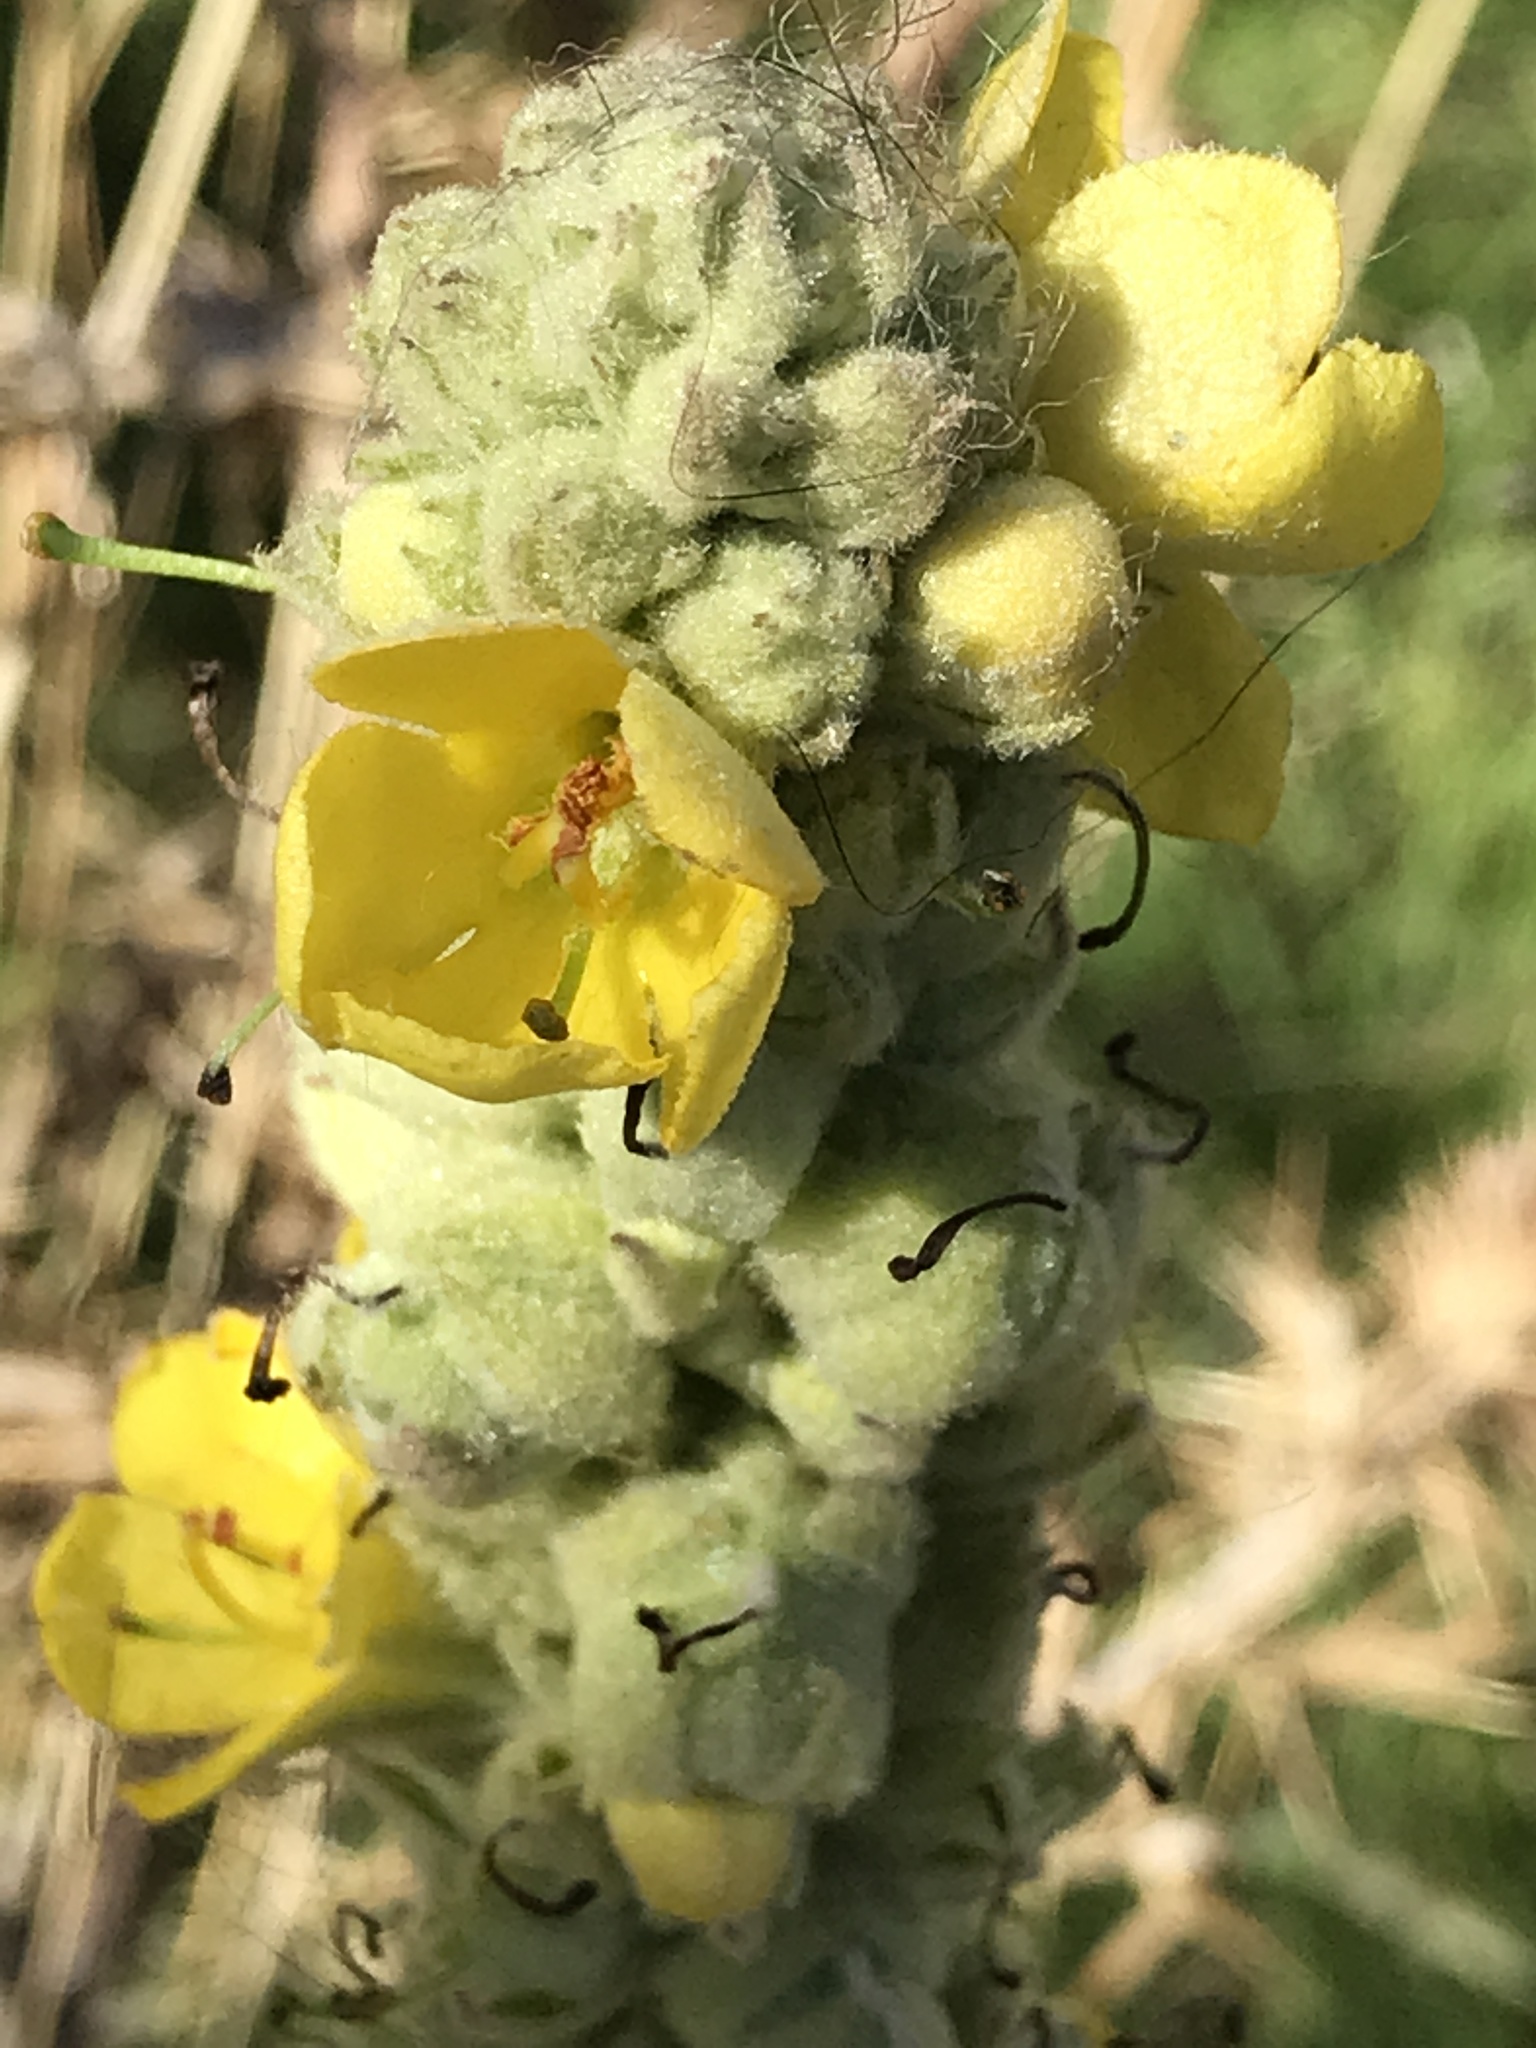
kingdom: Plantae
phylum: Tracheophyta
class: Magnoliopsida
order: Lamiales
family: Scrophulariaceae
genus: Verbascum
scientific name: Verbascum thapsus
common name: Common mullein
